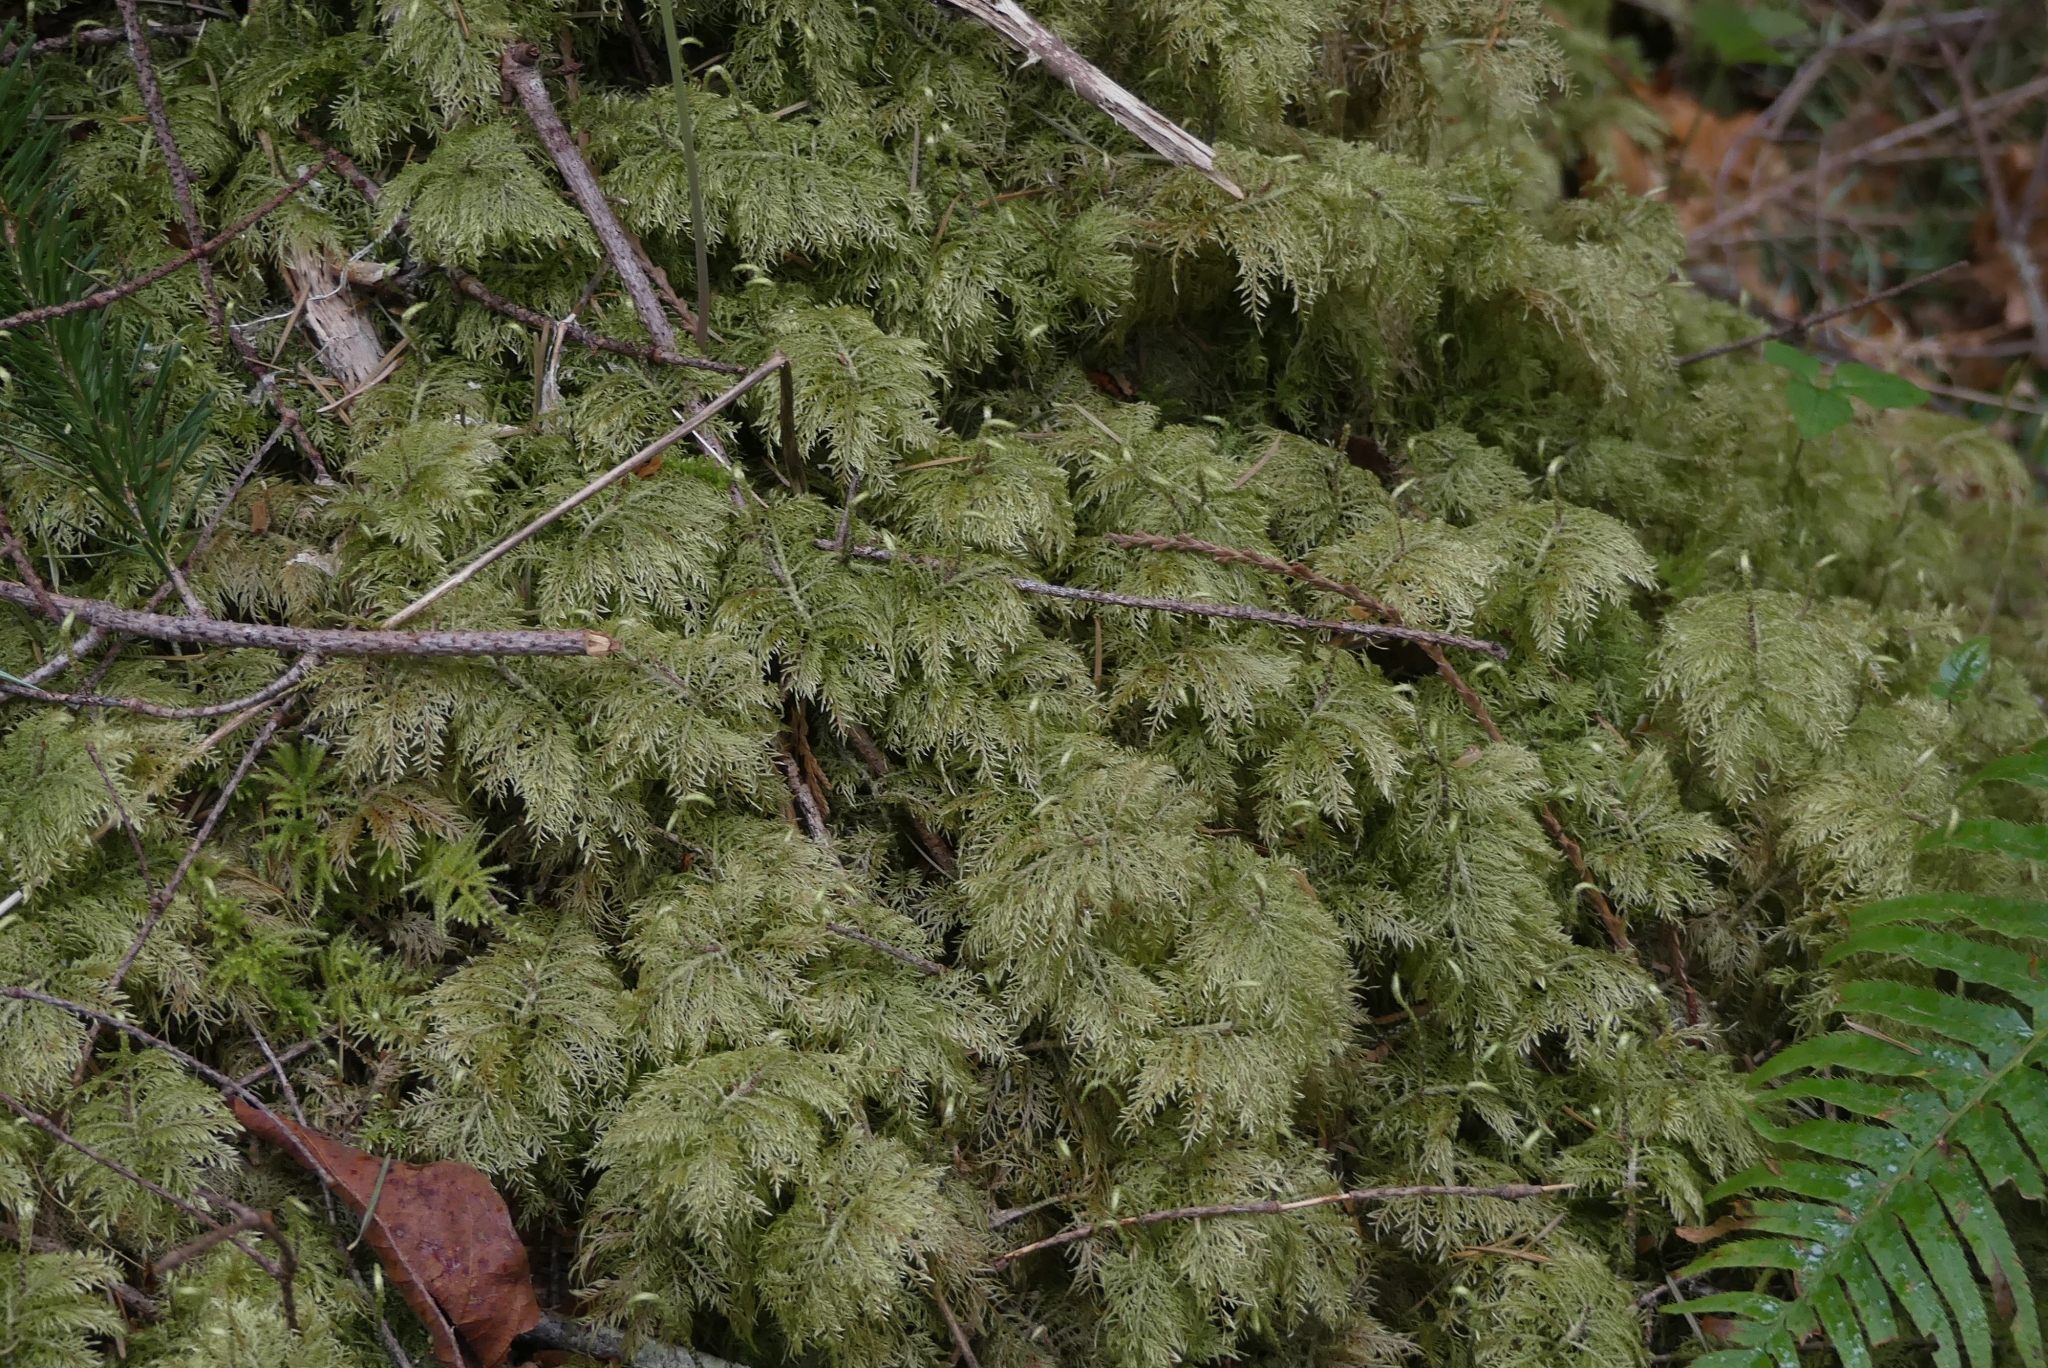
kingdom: Plantae
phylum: Bryophyta
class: Bryopsida
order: Hypnales
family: Hylocomiaceae
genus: Hylocomium
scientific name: Hylocomium splendens
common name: Stairstep moss
